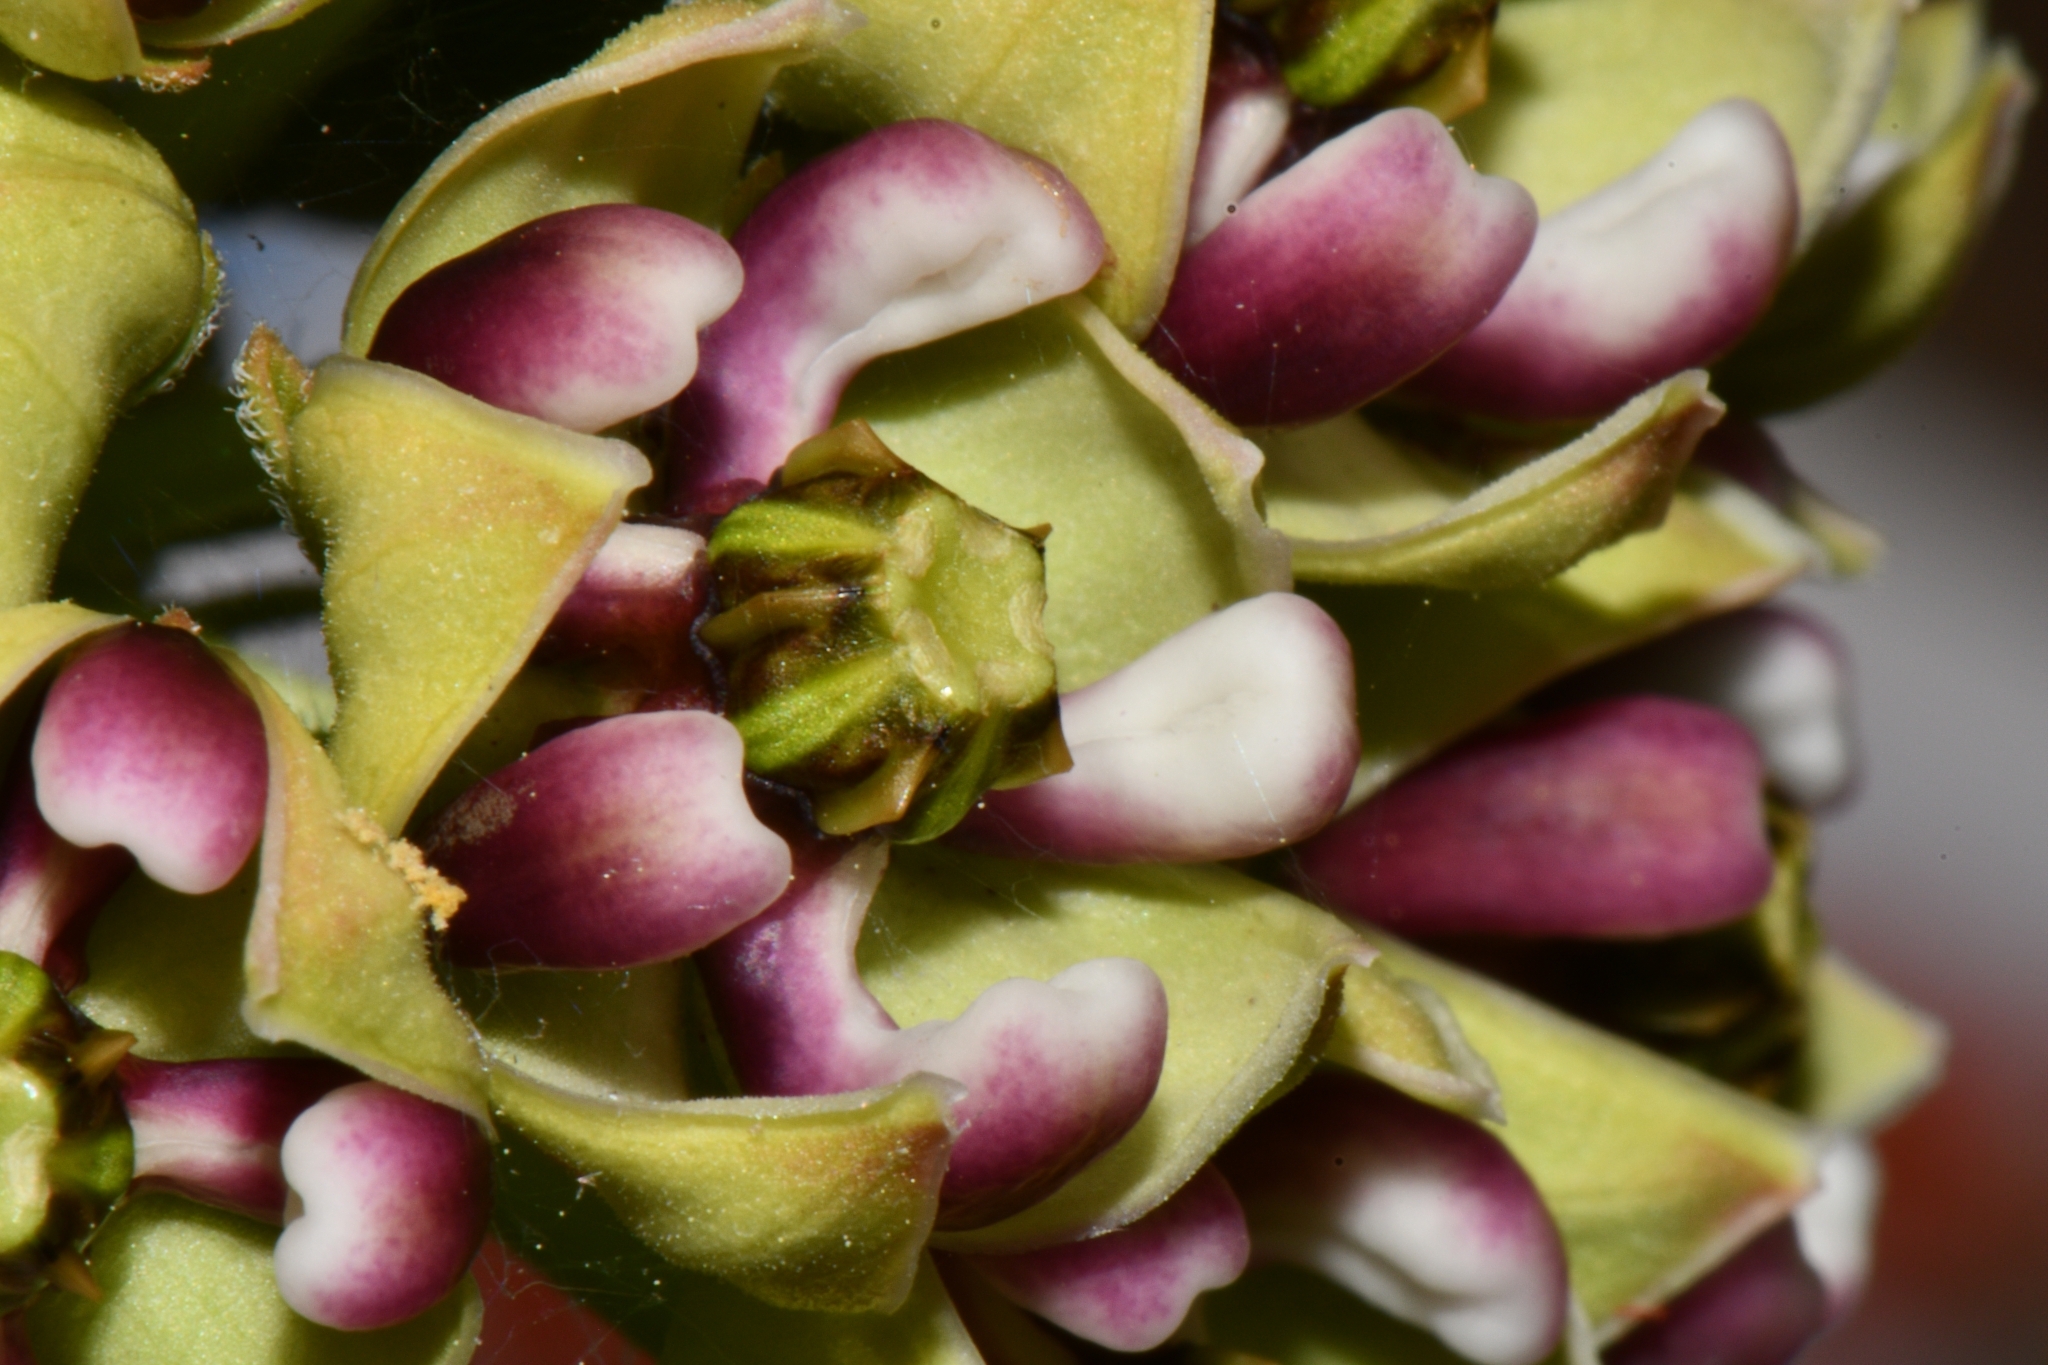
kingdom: Plantae
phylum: Tracheophyta
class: Magnoliopsida
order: Gentianales
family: Apocynaceae
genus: Asclepias
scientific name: Asclepias asperula
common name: Antelope horns
